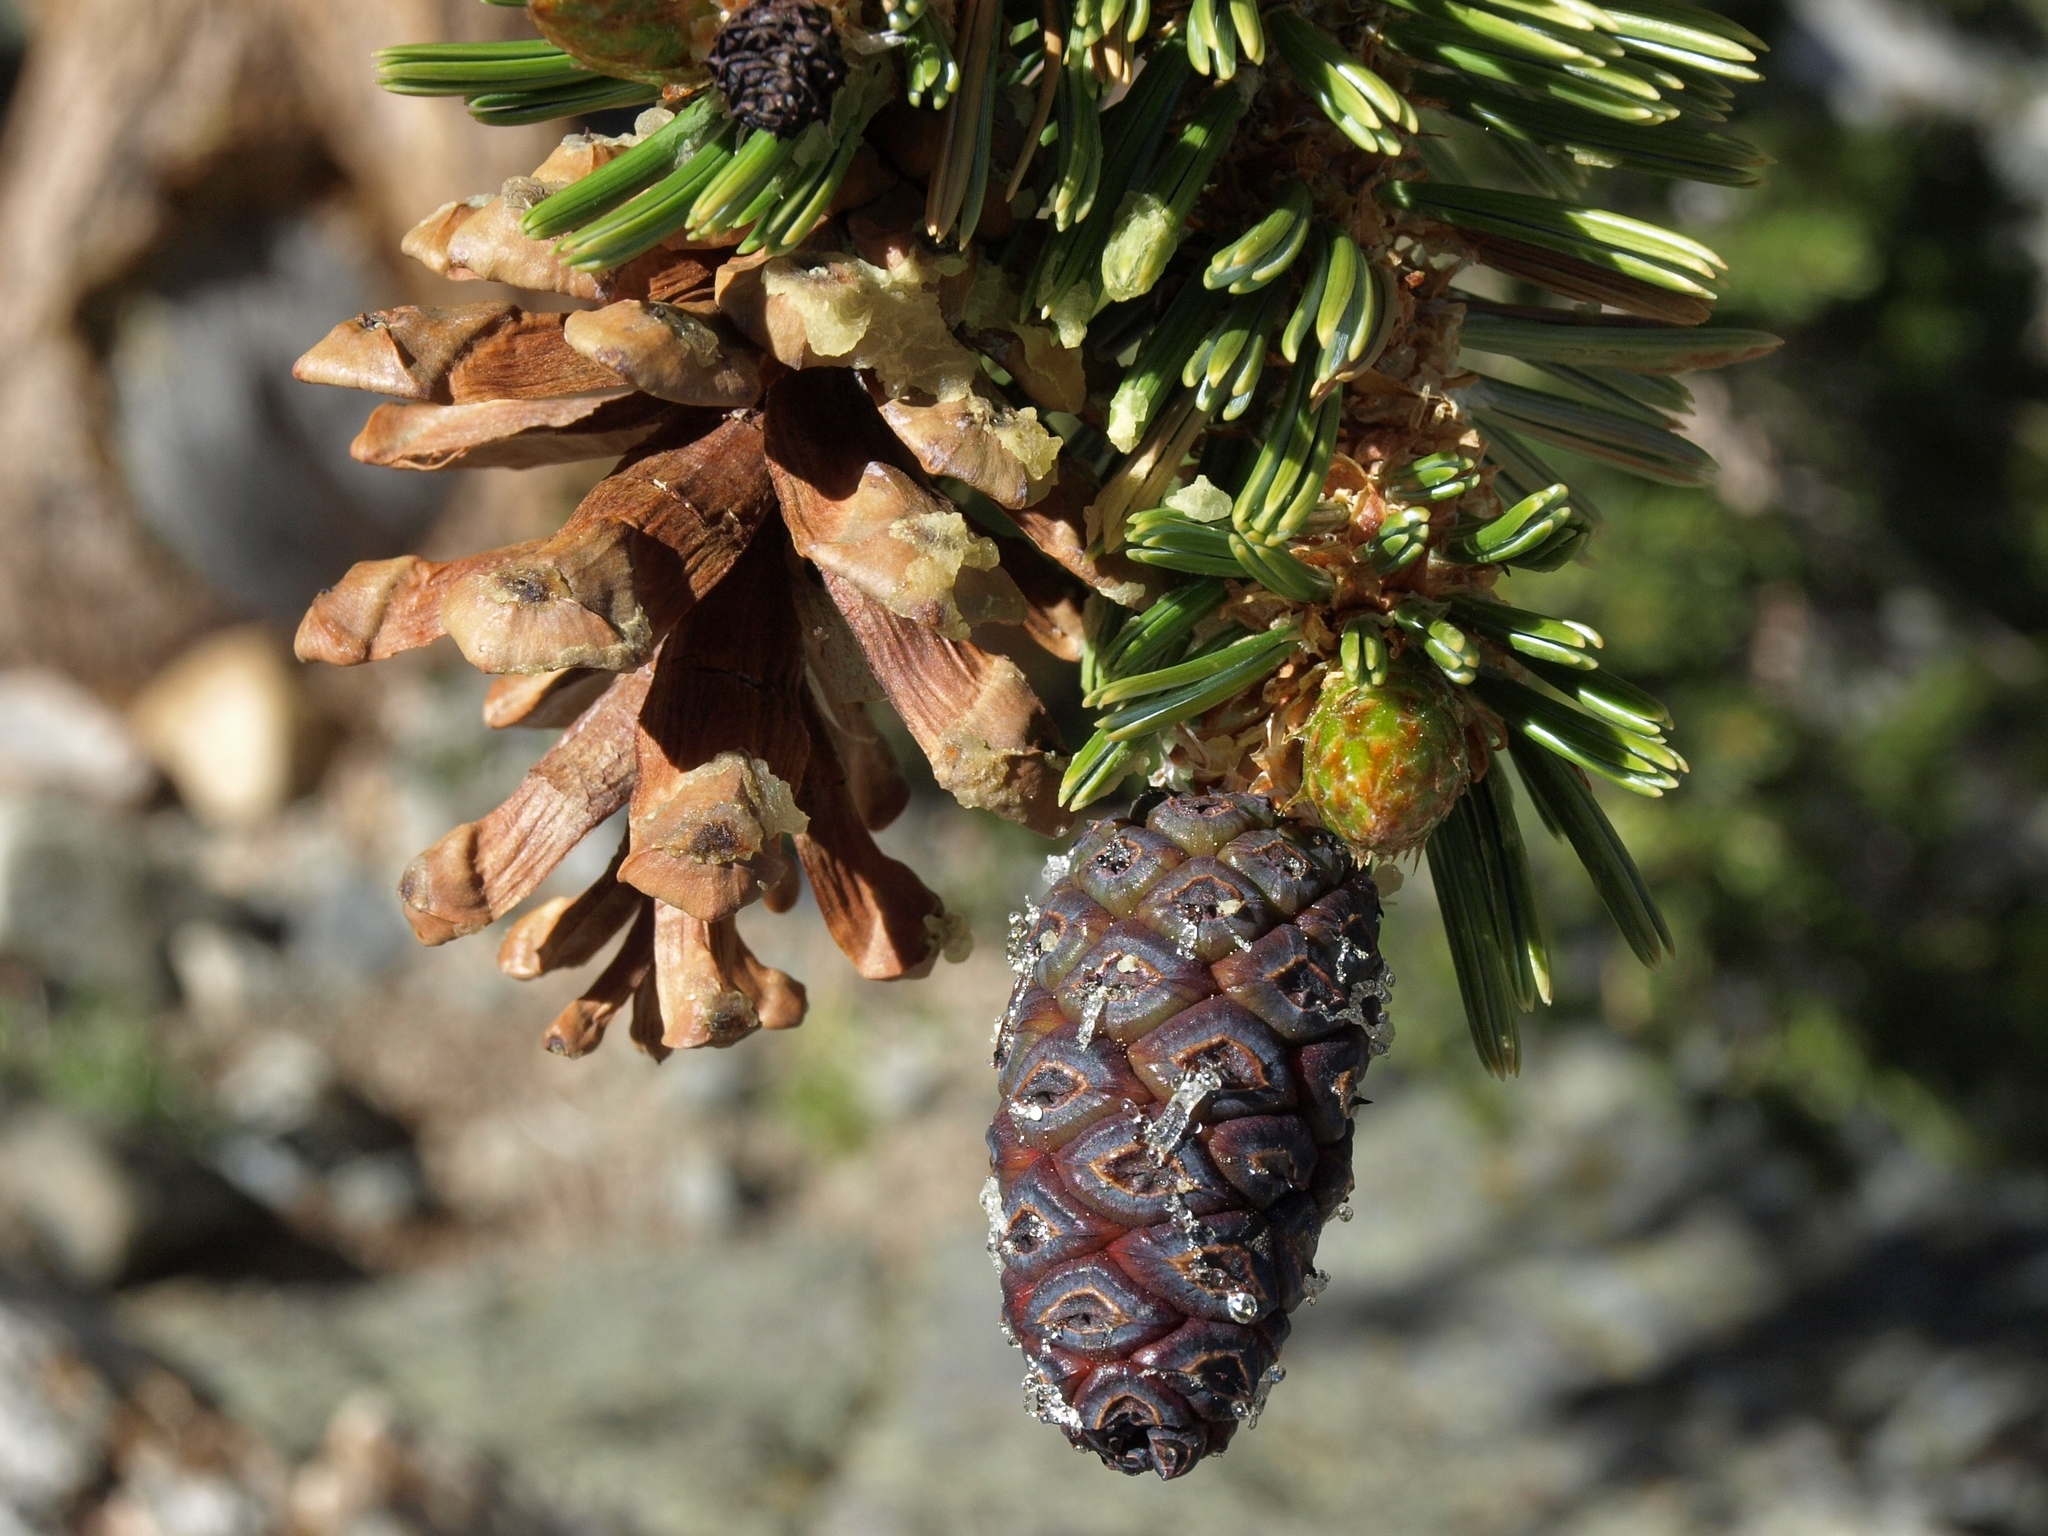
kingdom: Plantae
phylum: Tracheophyta
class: Pinopsida
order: Pinales
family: Pinaceae
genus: Pinus
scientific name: Pinus balfouriana
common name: Foxtail pine
